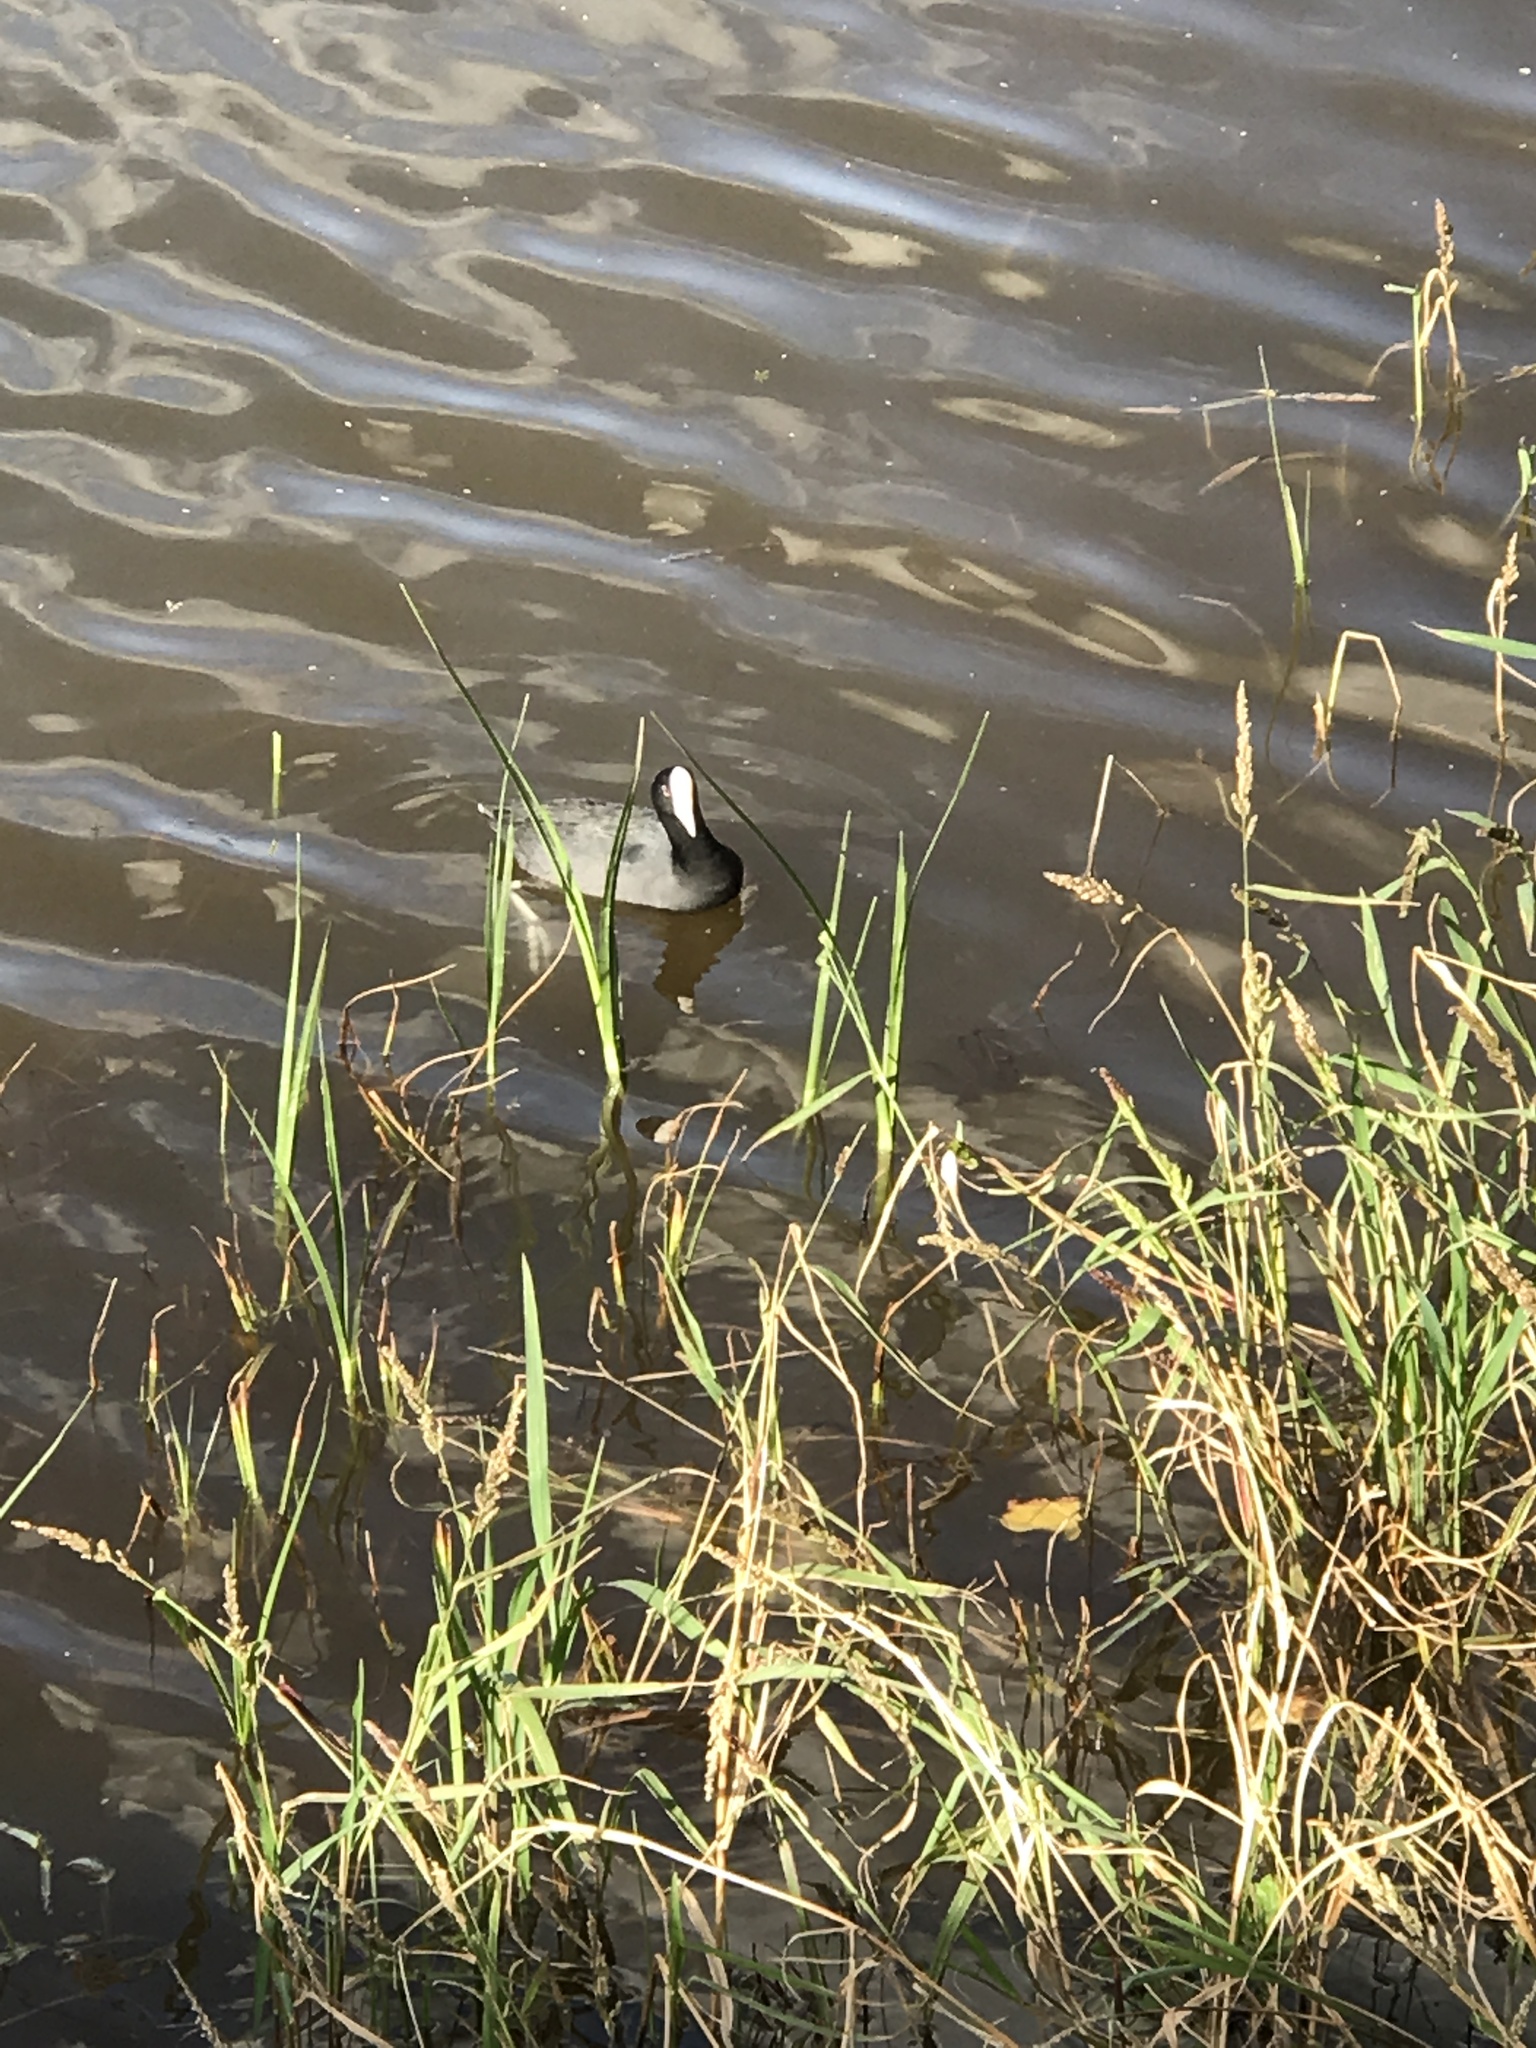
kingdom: Animalia
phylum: Chordata
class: Aves
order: Gruiformes
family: Rallidae
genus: Fulica
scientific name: Fulica alai
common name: Hawaiian coot
